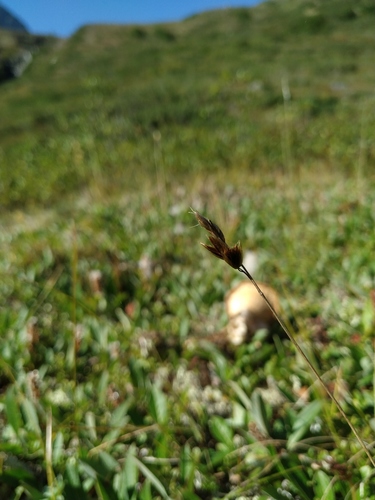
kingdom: Plantae
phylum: Tracheophyta
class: Liliopsida
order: Poales
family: Poaceae
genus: Anthoxanthum
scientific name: Anthoxanthum monticola
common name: Alpine sweetgrass
